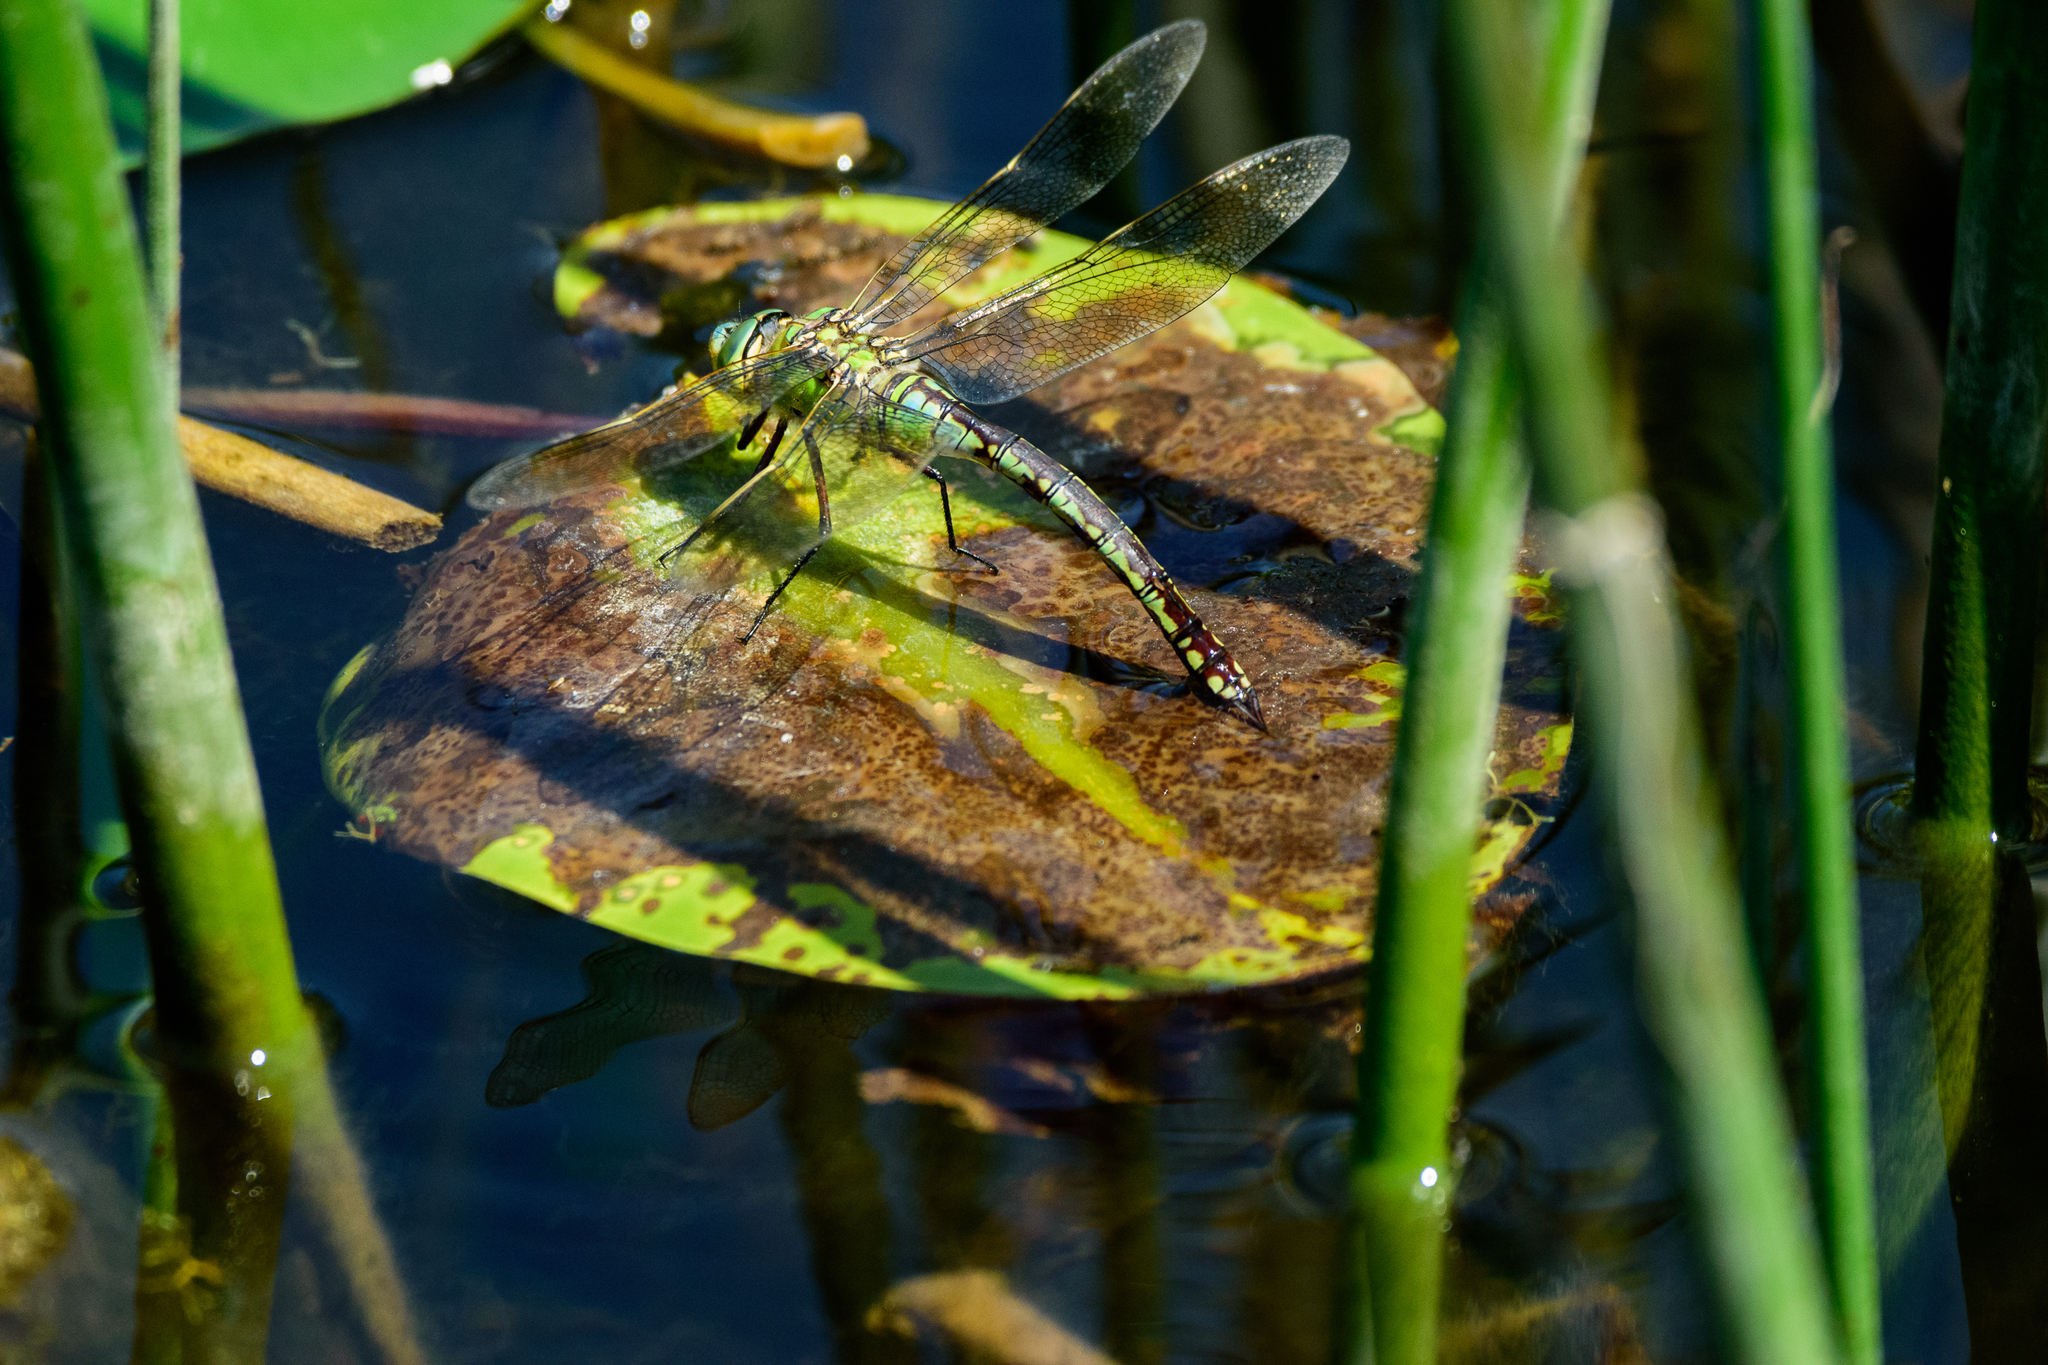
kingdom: Animalia
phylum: Arthropoda
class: Insecta
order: Odonata
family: Aeshnidae
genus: Anax
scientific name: Anax imperator
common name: Emperor dragonfly
